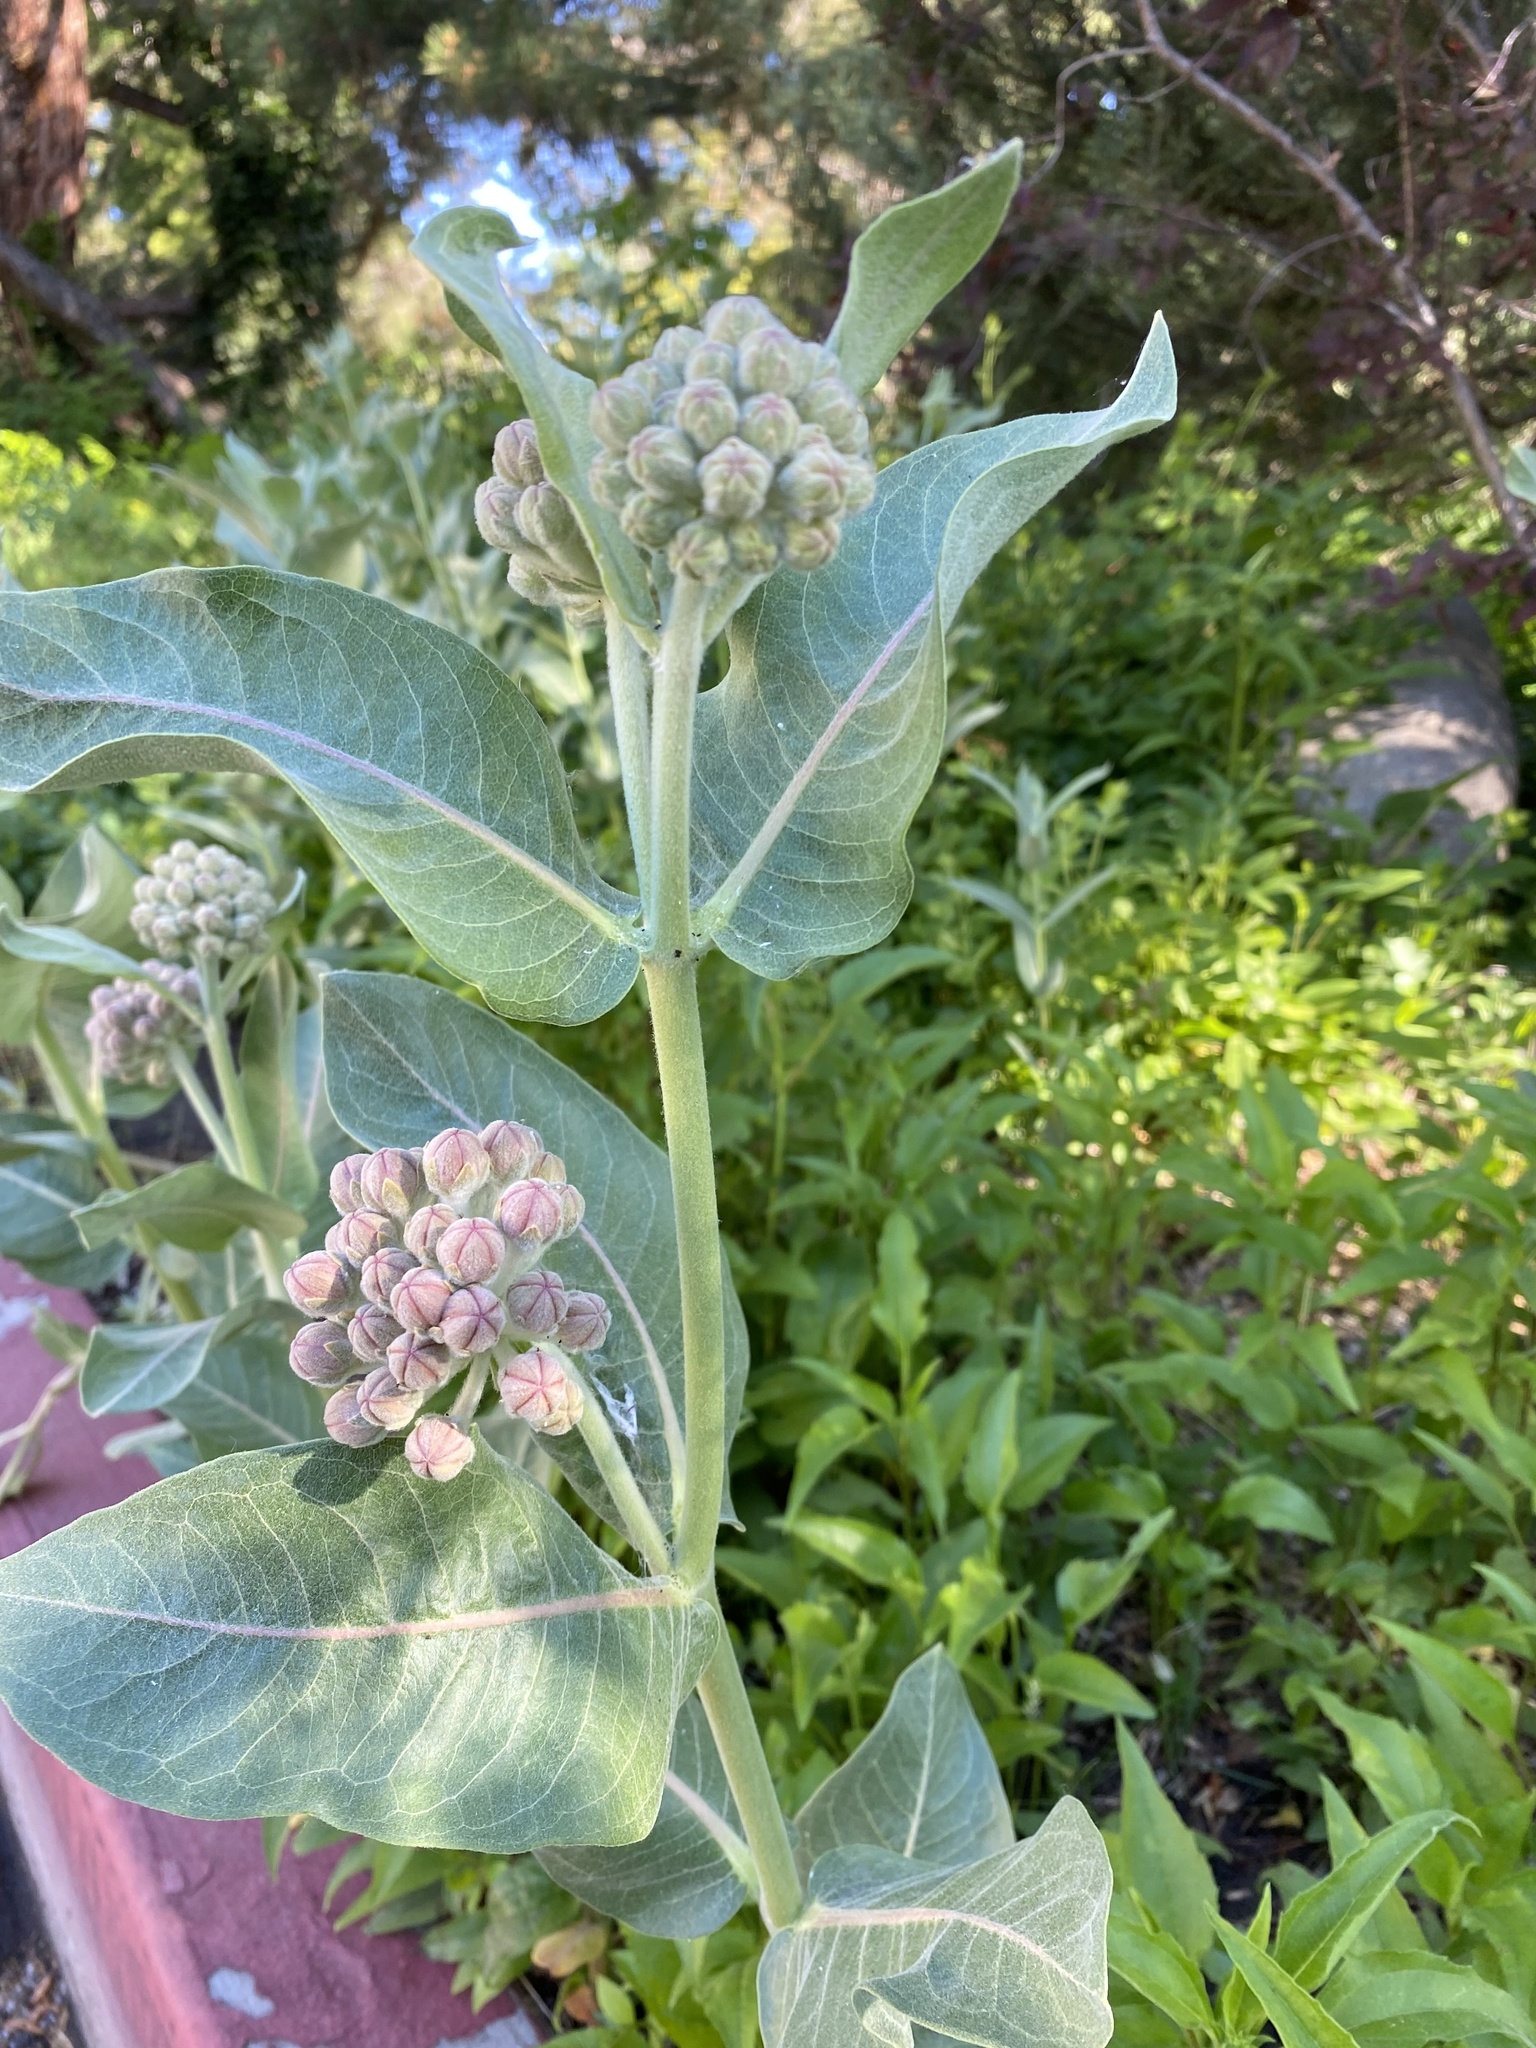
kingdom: Plantae
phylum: Tracheophyta
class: Magnoliopsida
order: Gentianales
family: Apocynaceae
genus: Asclepias
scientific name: Asclepias speciosa
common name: Showy milkweed
